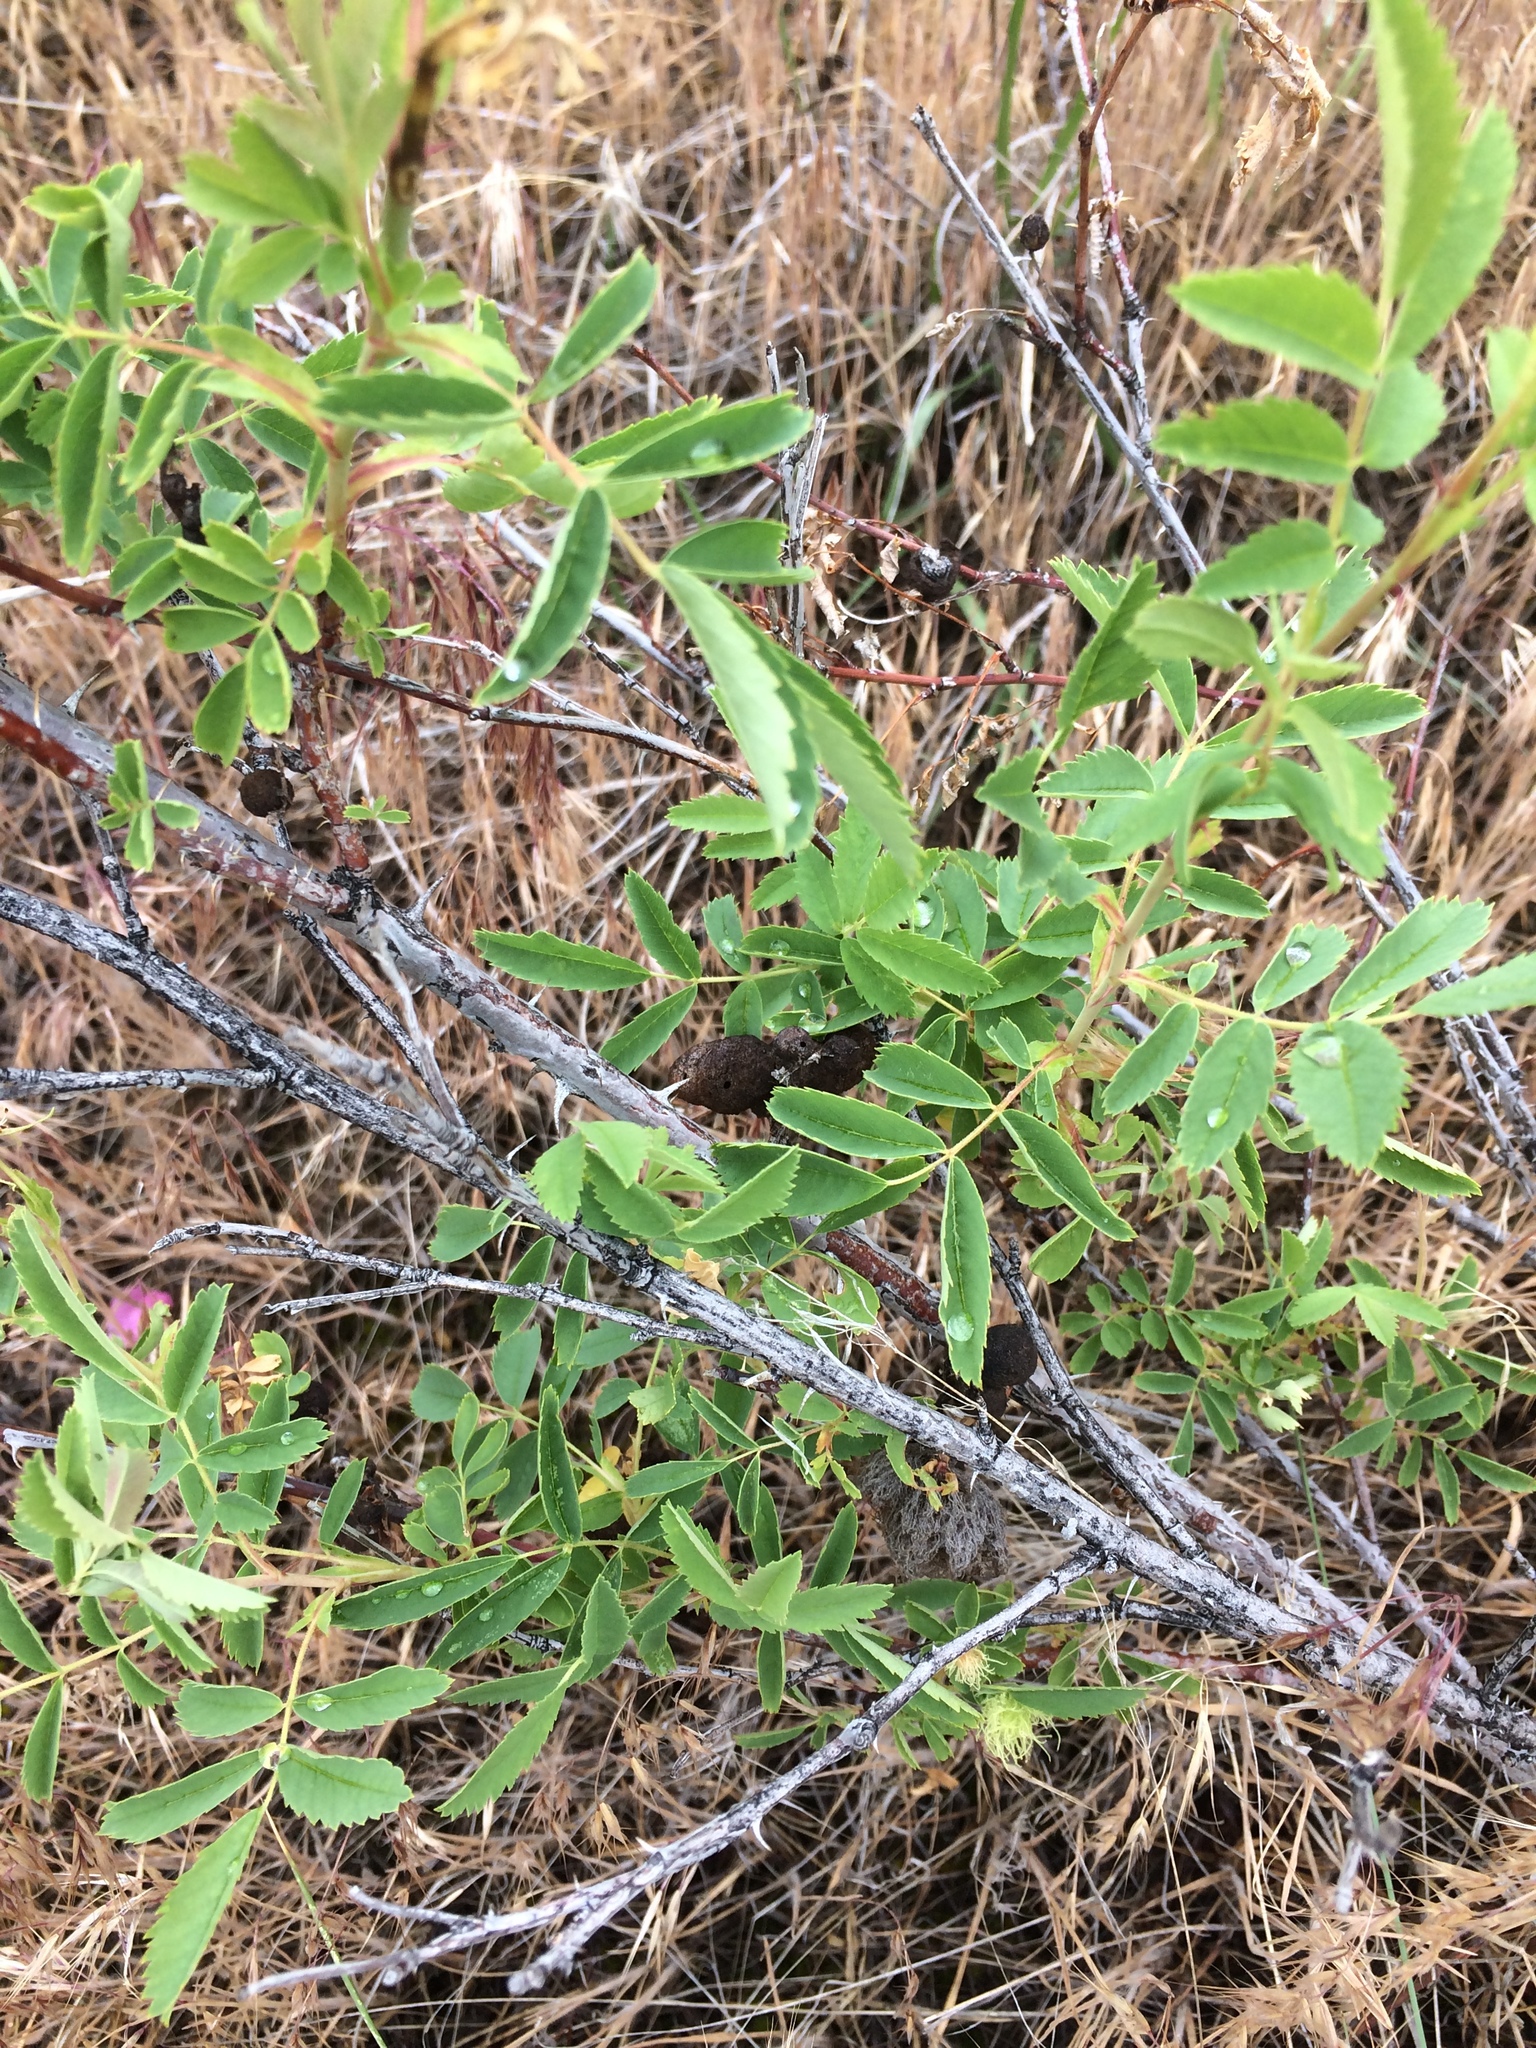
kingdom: Animalia
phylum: Arthropoda
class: Insecta
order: Hymenoptera
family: Cynipidae
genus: Diplolepis
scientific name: Diplolepis variabilis
